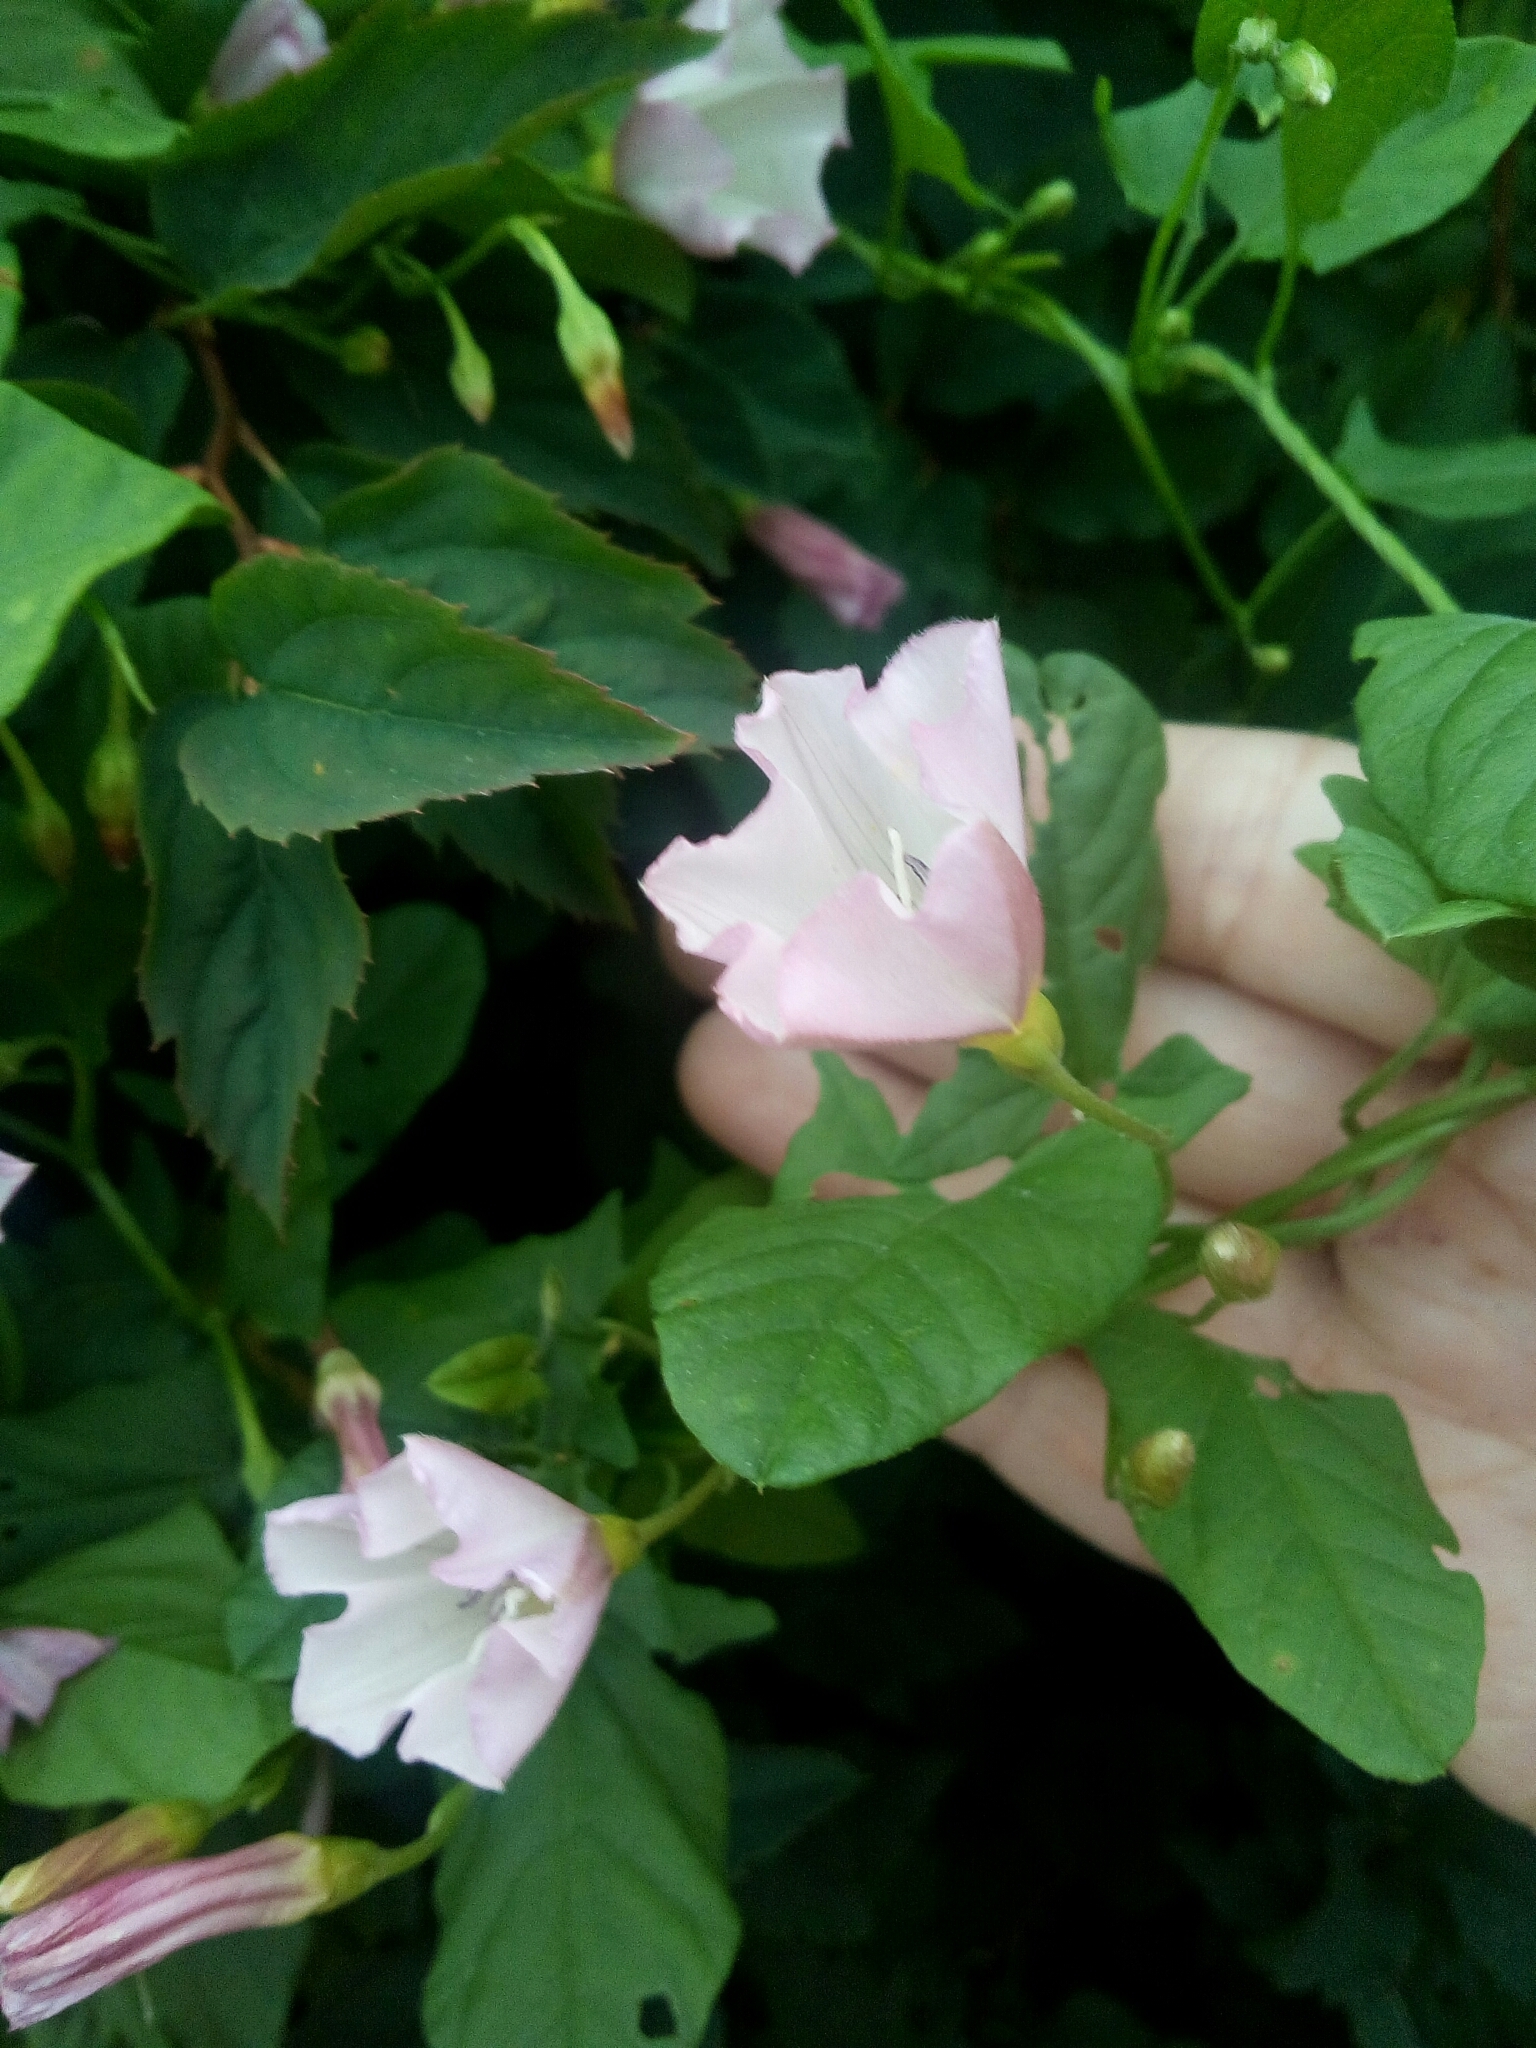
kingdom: Plantae
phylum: Tracheophyta
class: Magnoliopsida
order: Solanales
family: Convolvulaceae
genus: Convolvulus
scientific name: Convolvulus arvensis
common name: Field bindweed
